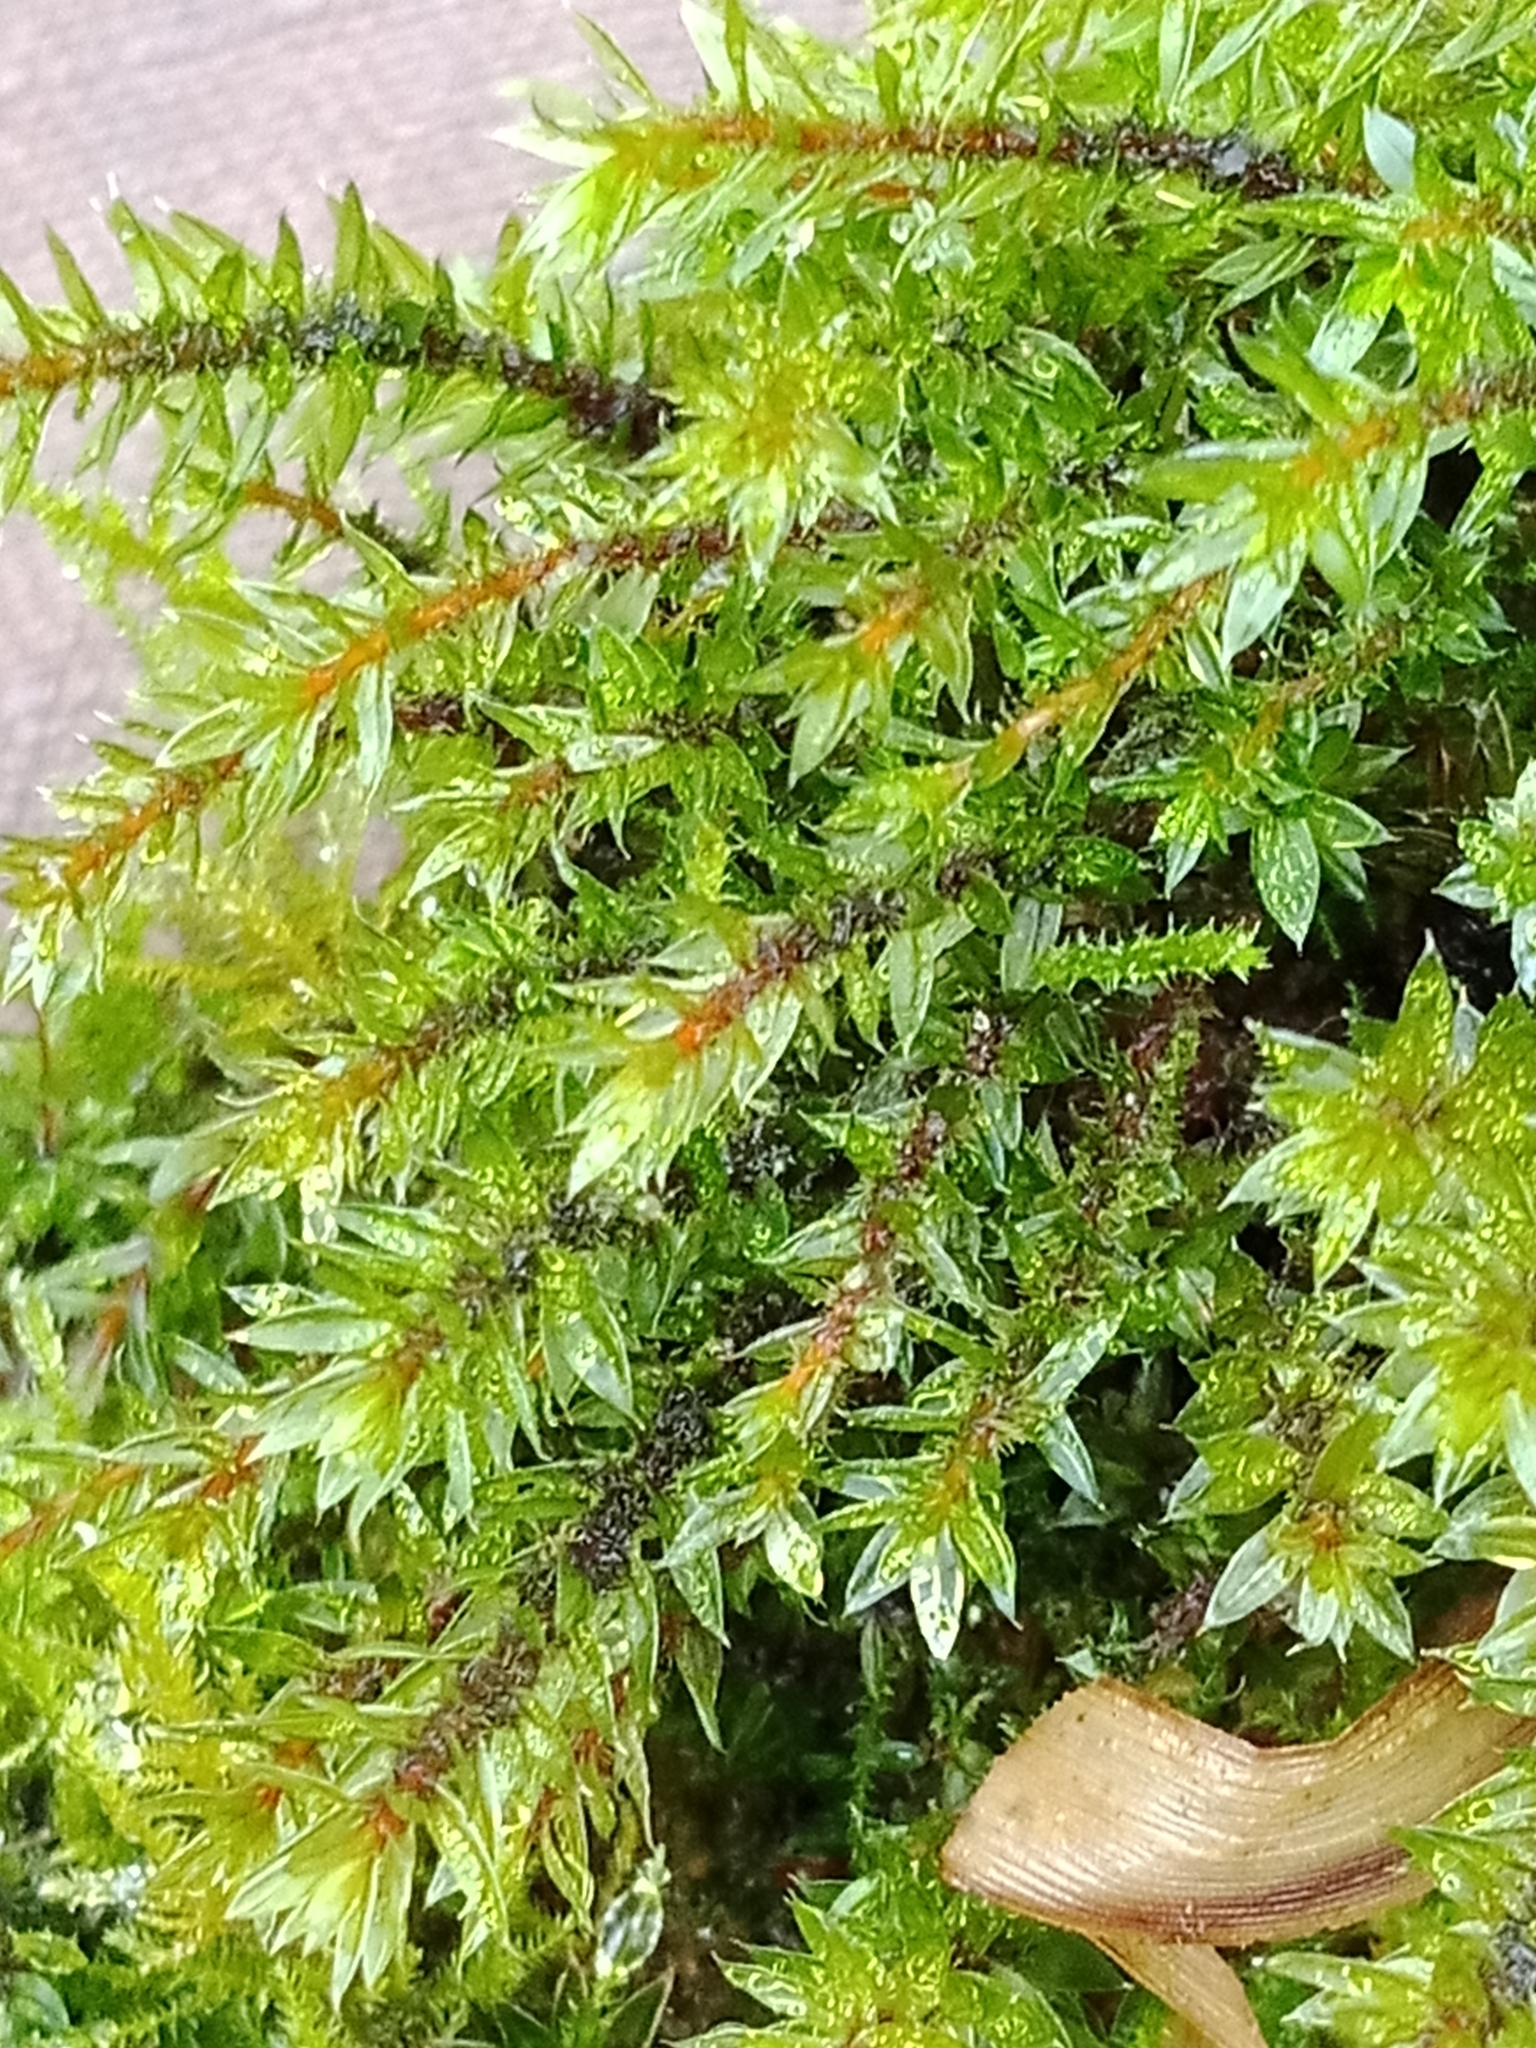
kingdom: Plantae
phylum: Bryophyta
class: Bryopsida
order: Bryales
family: Bryaceae
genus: Ptychostomum
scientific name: Ptychostomum pseudotriquetrum
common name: Long-leaved thread moss
